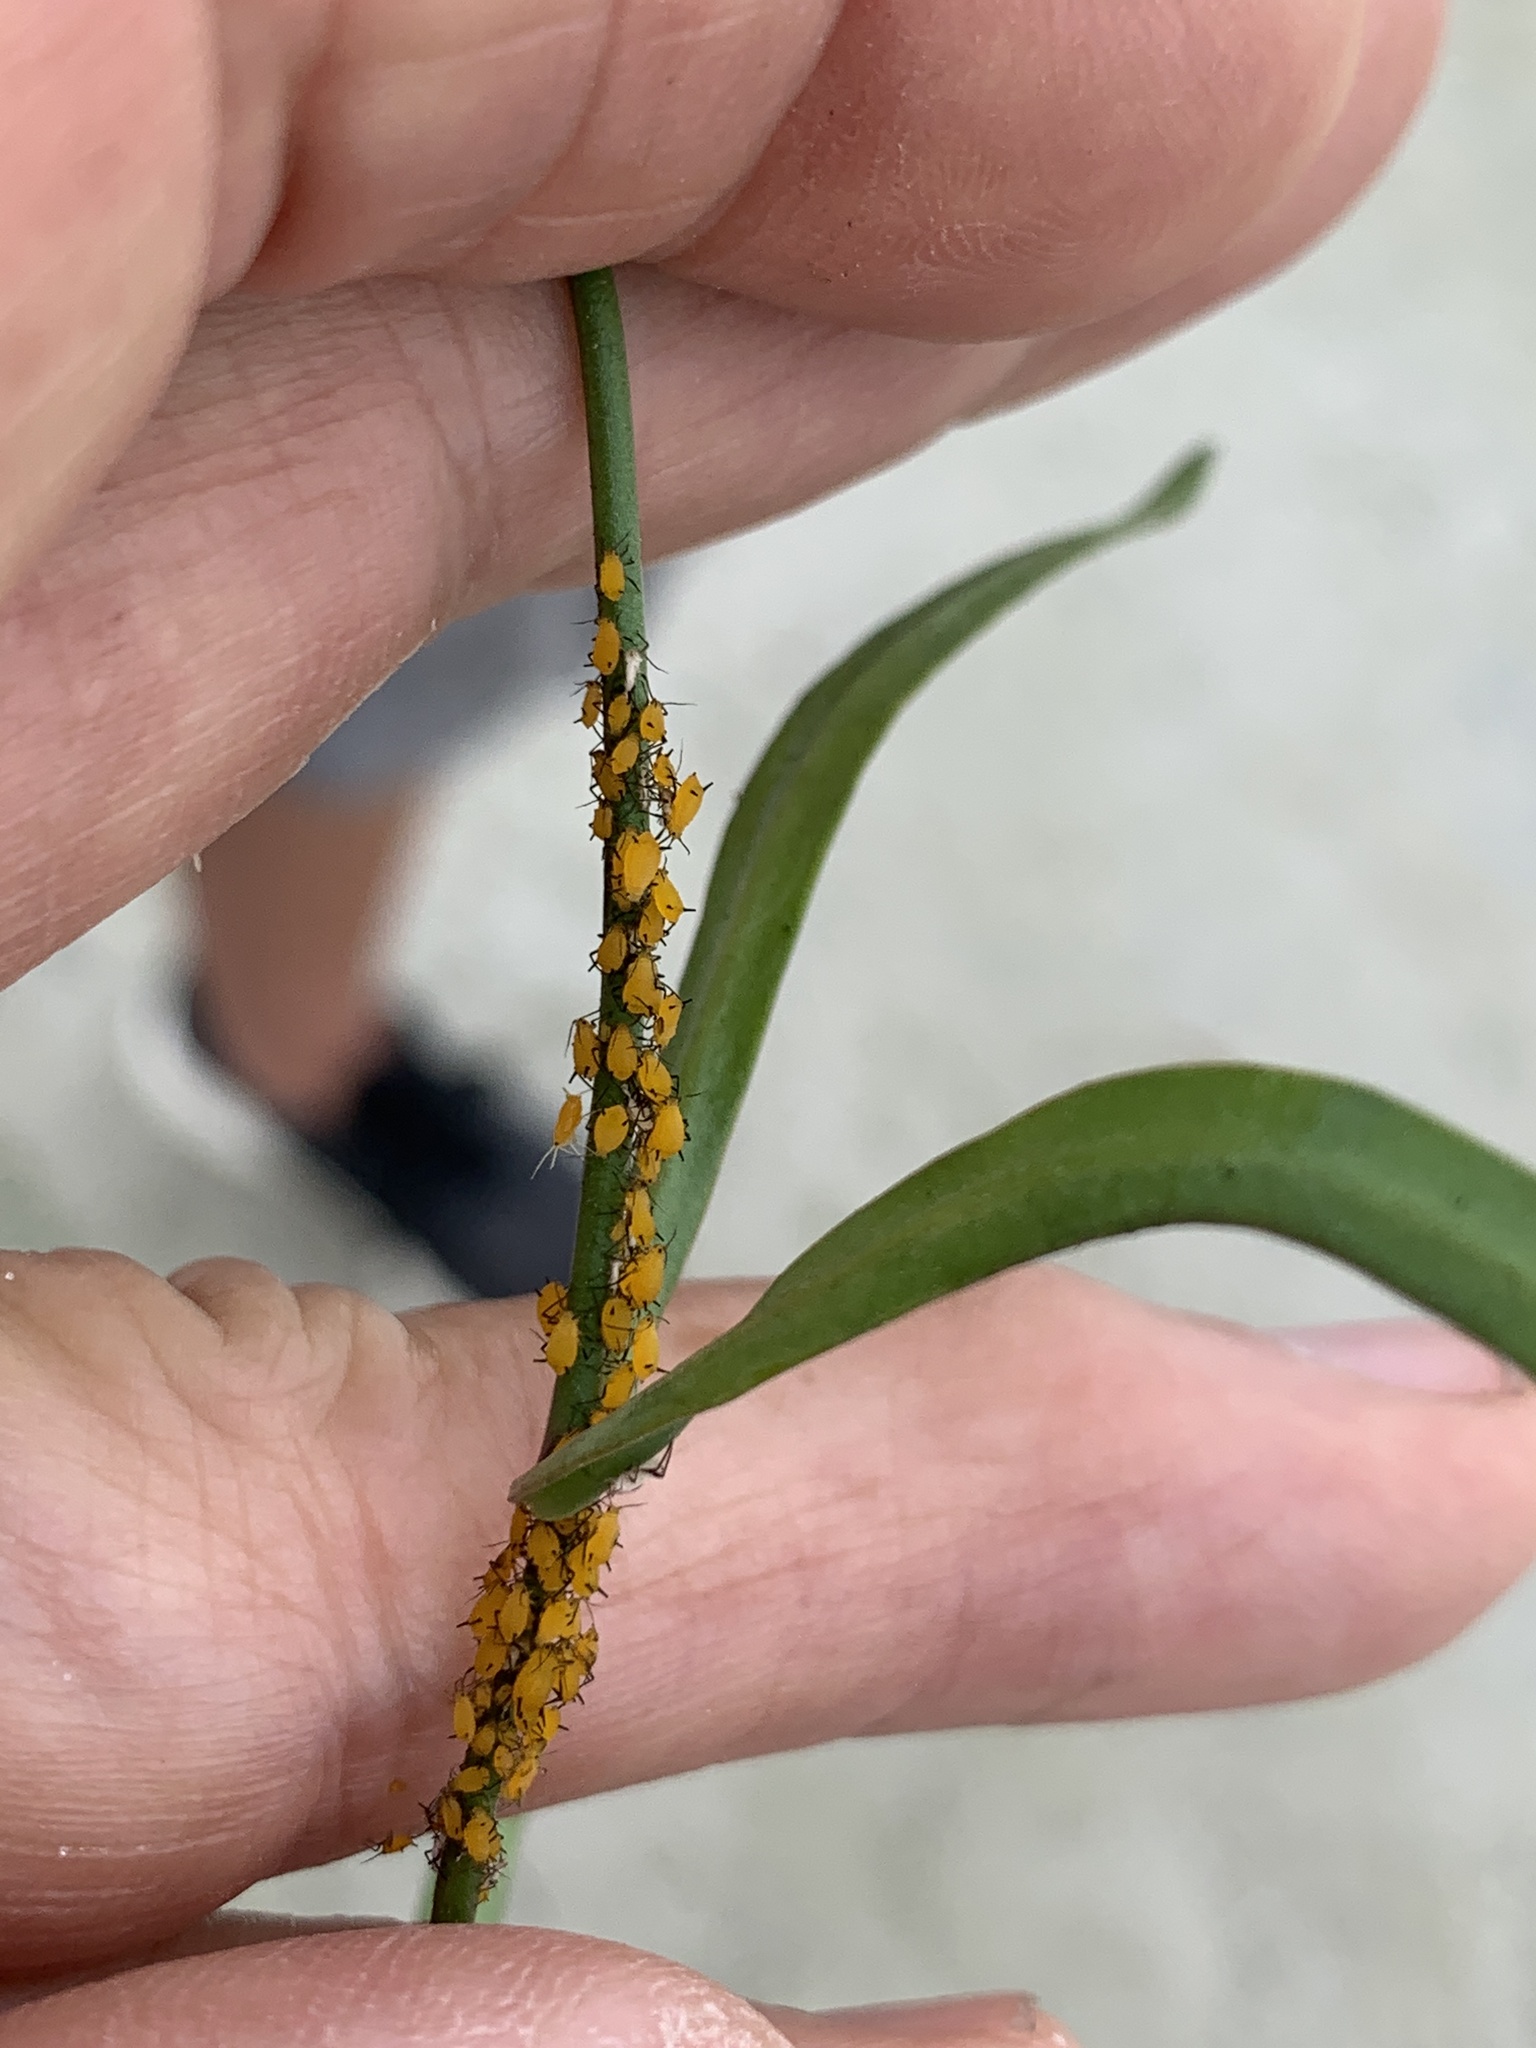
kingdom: Animalia
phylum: Arthropoda
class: Insecta
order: Hemiptera
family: Aphididae
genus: Aphis
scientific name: Aphis nerii
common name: Oleander aphid
